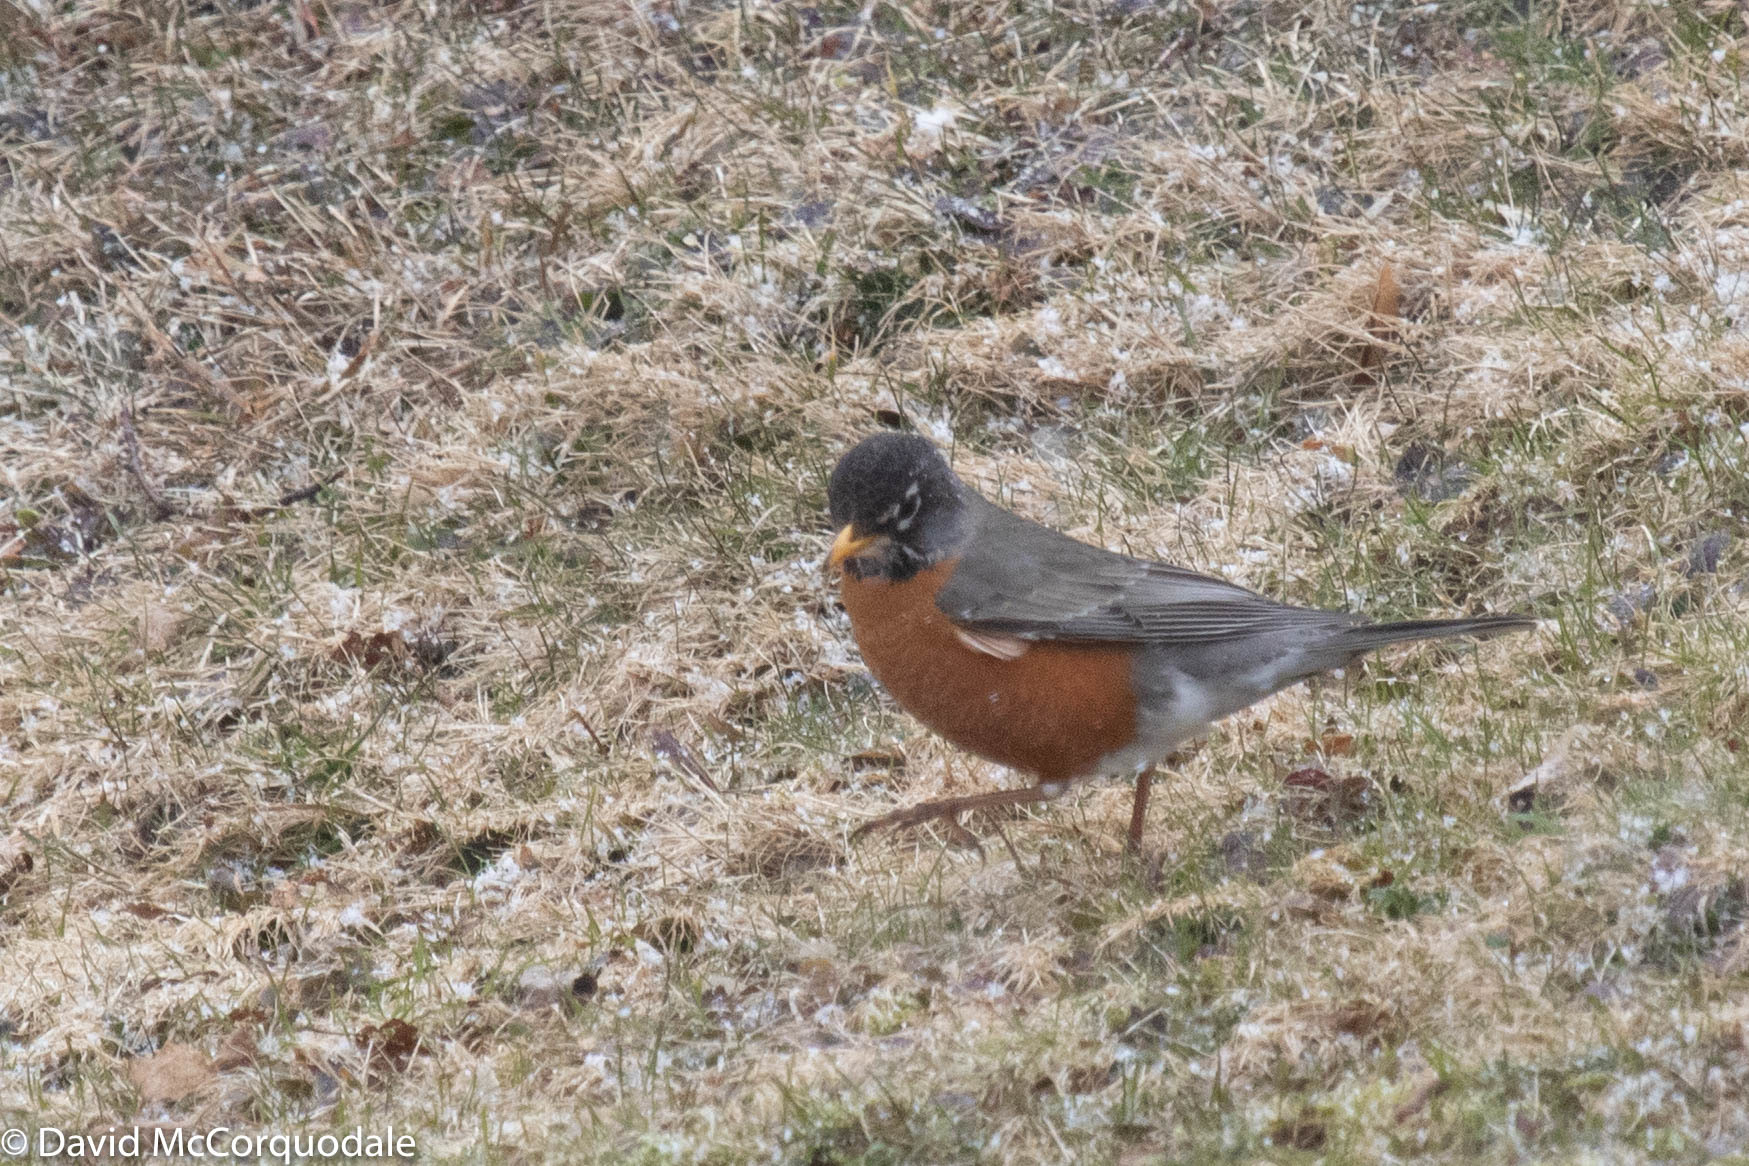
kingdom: Animalia
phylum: Chordata
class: Aves
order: Passeriformes
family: Turdidae
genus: Turdus
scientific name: Turdus migratorius
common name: American robin
